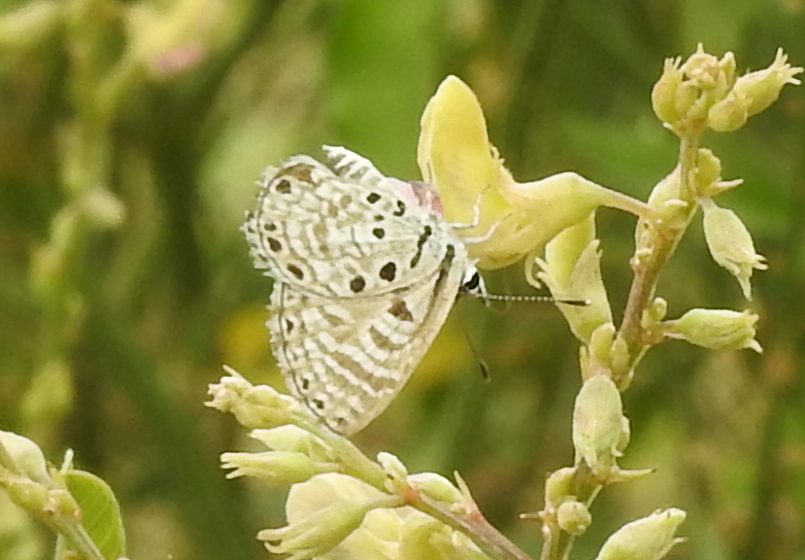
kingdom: Animalia
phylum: Arthropoda
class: Insecta
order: Lepidoptera
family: Lycaenidae
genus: Azanus
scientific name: Azanus jesous
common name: African babul blue
